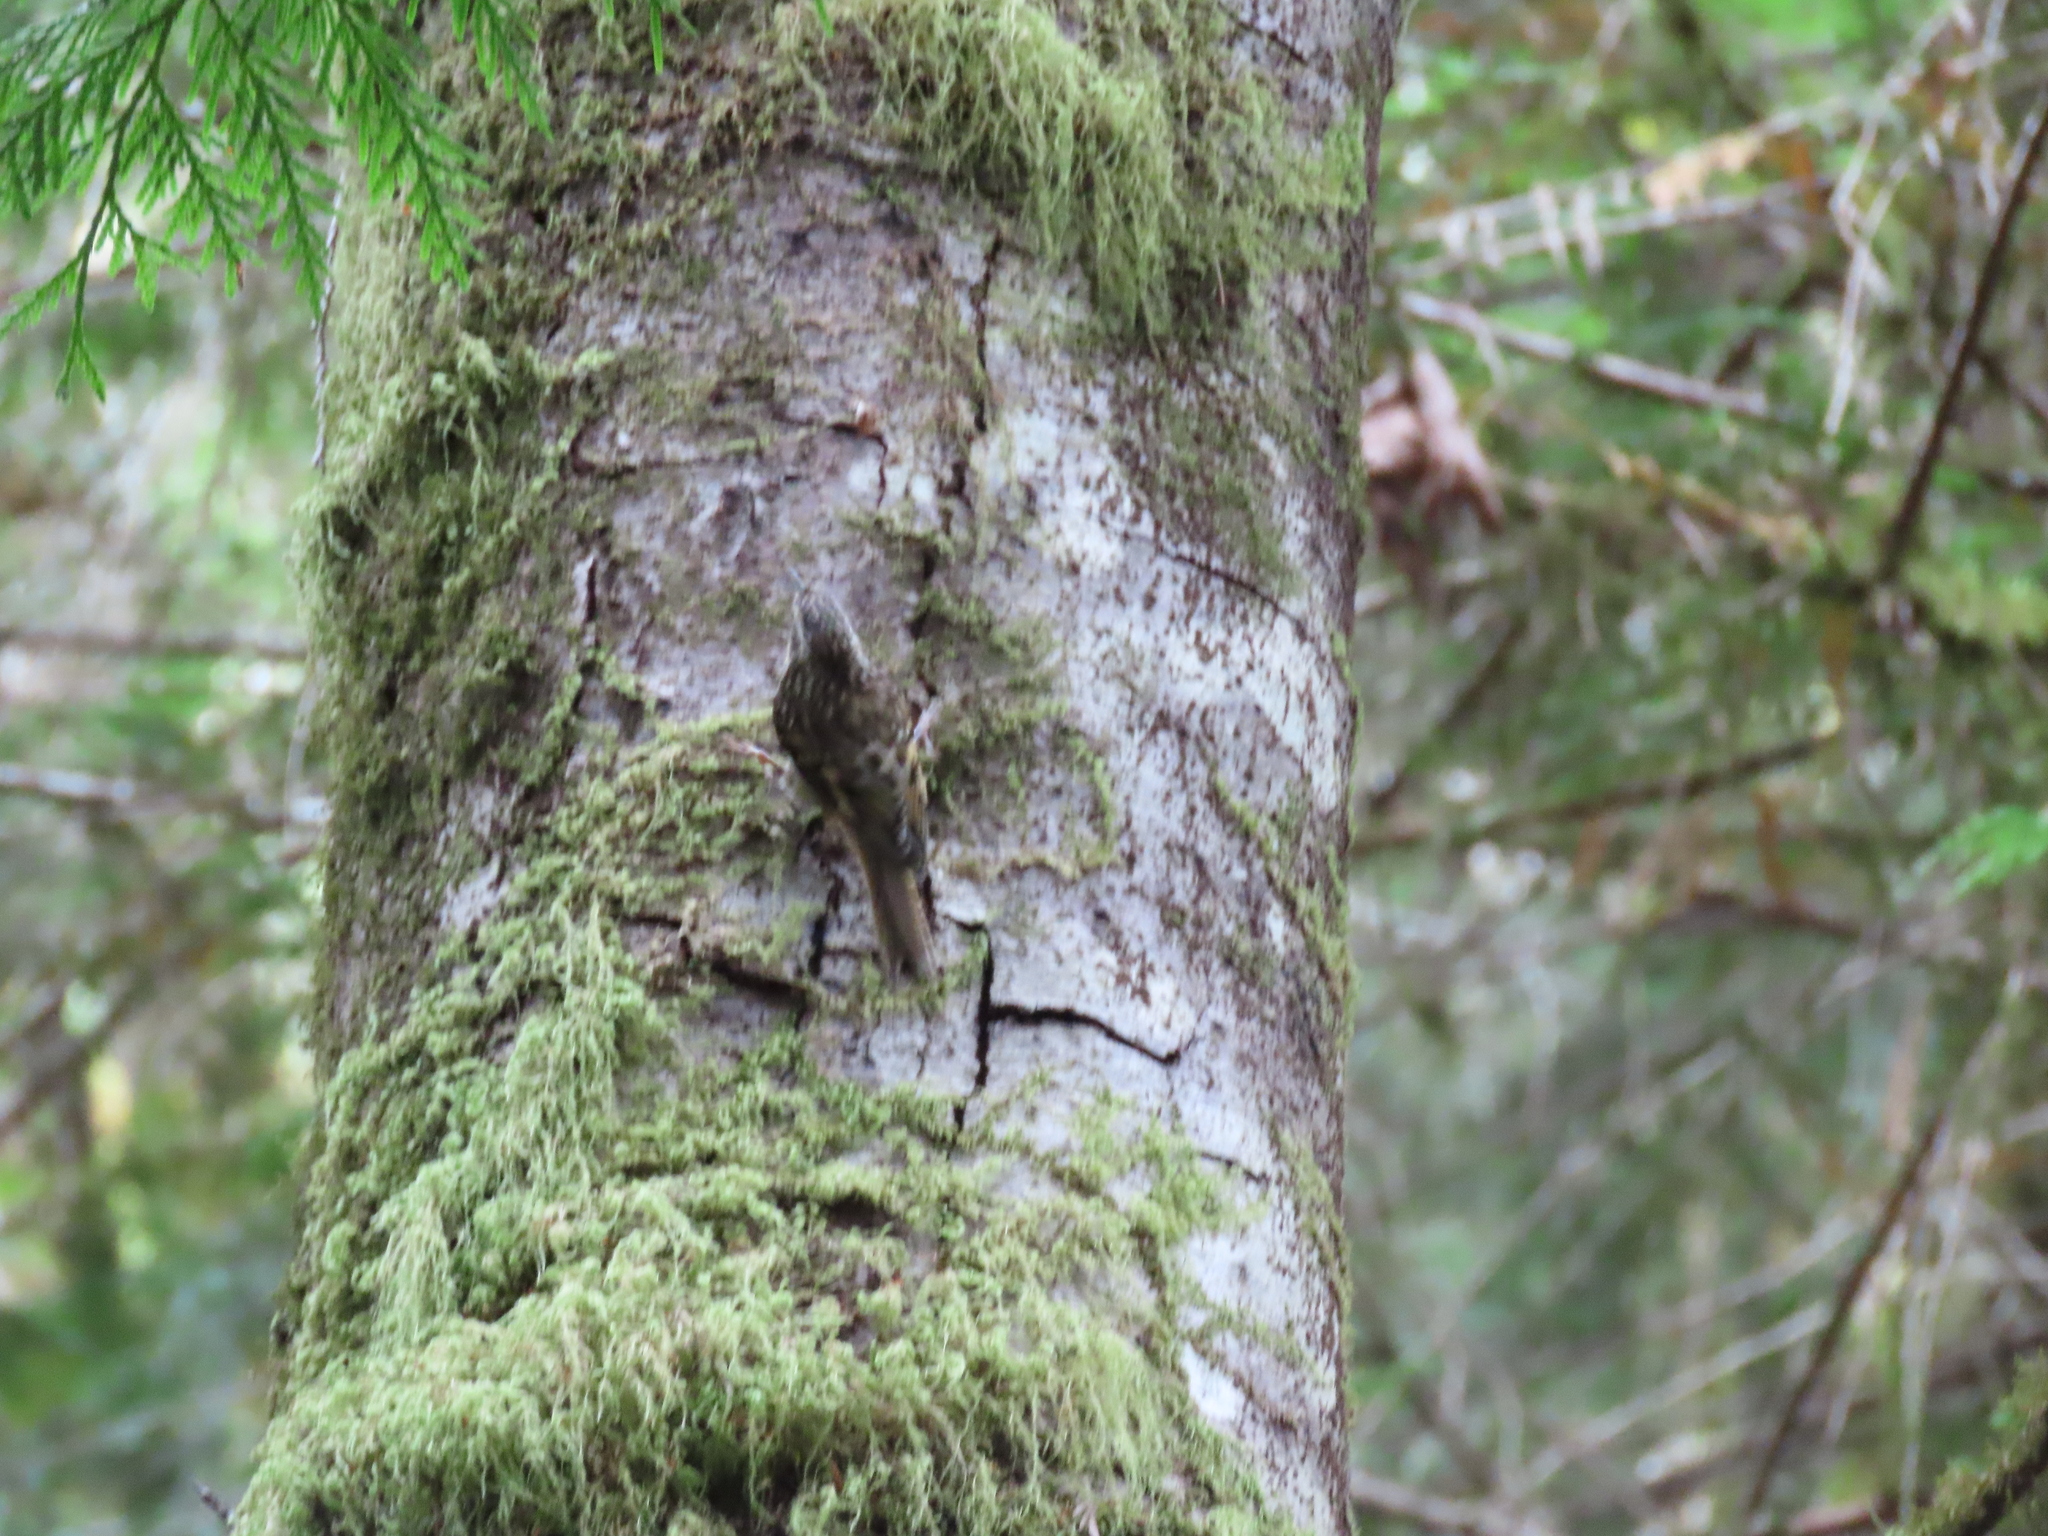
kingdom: Animalia
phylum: Chordata
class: Aves
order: Passeriformes
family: Certhiidae
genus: Certhia
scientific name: Certhia americana
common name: Brown creeper
